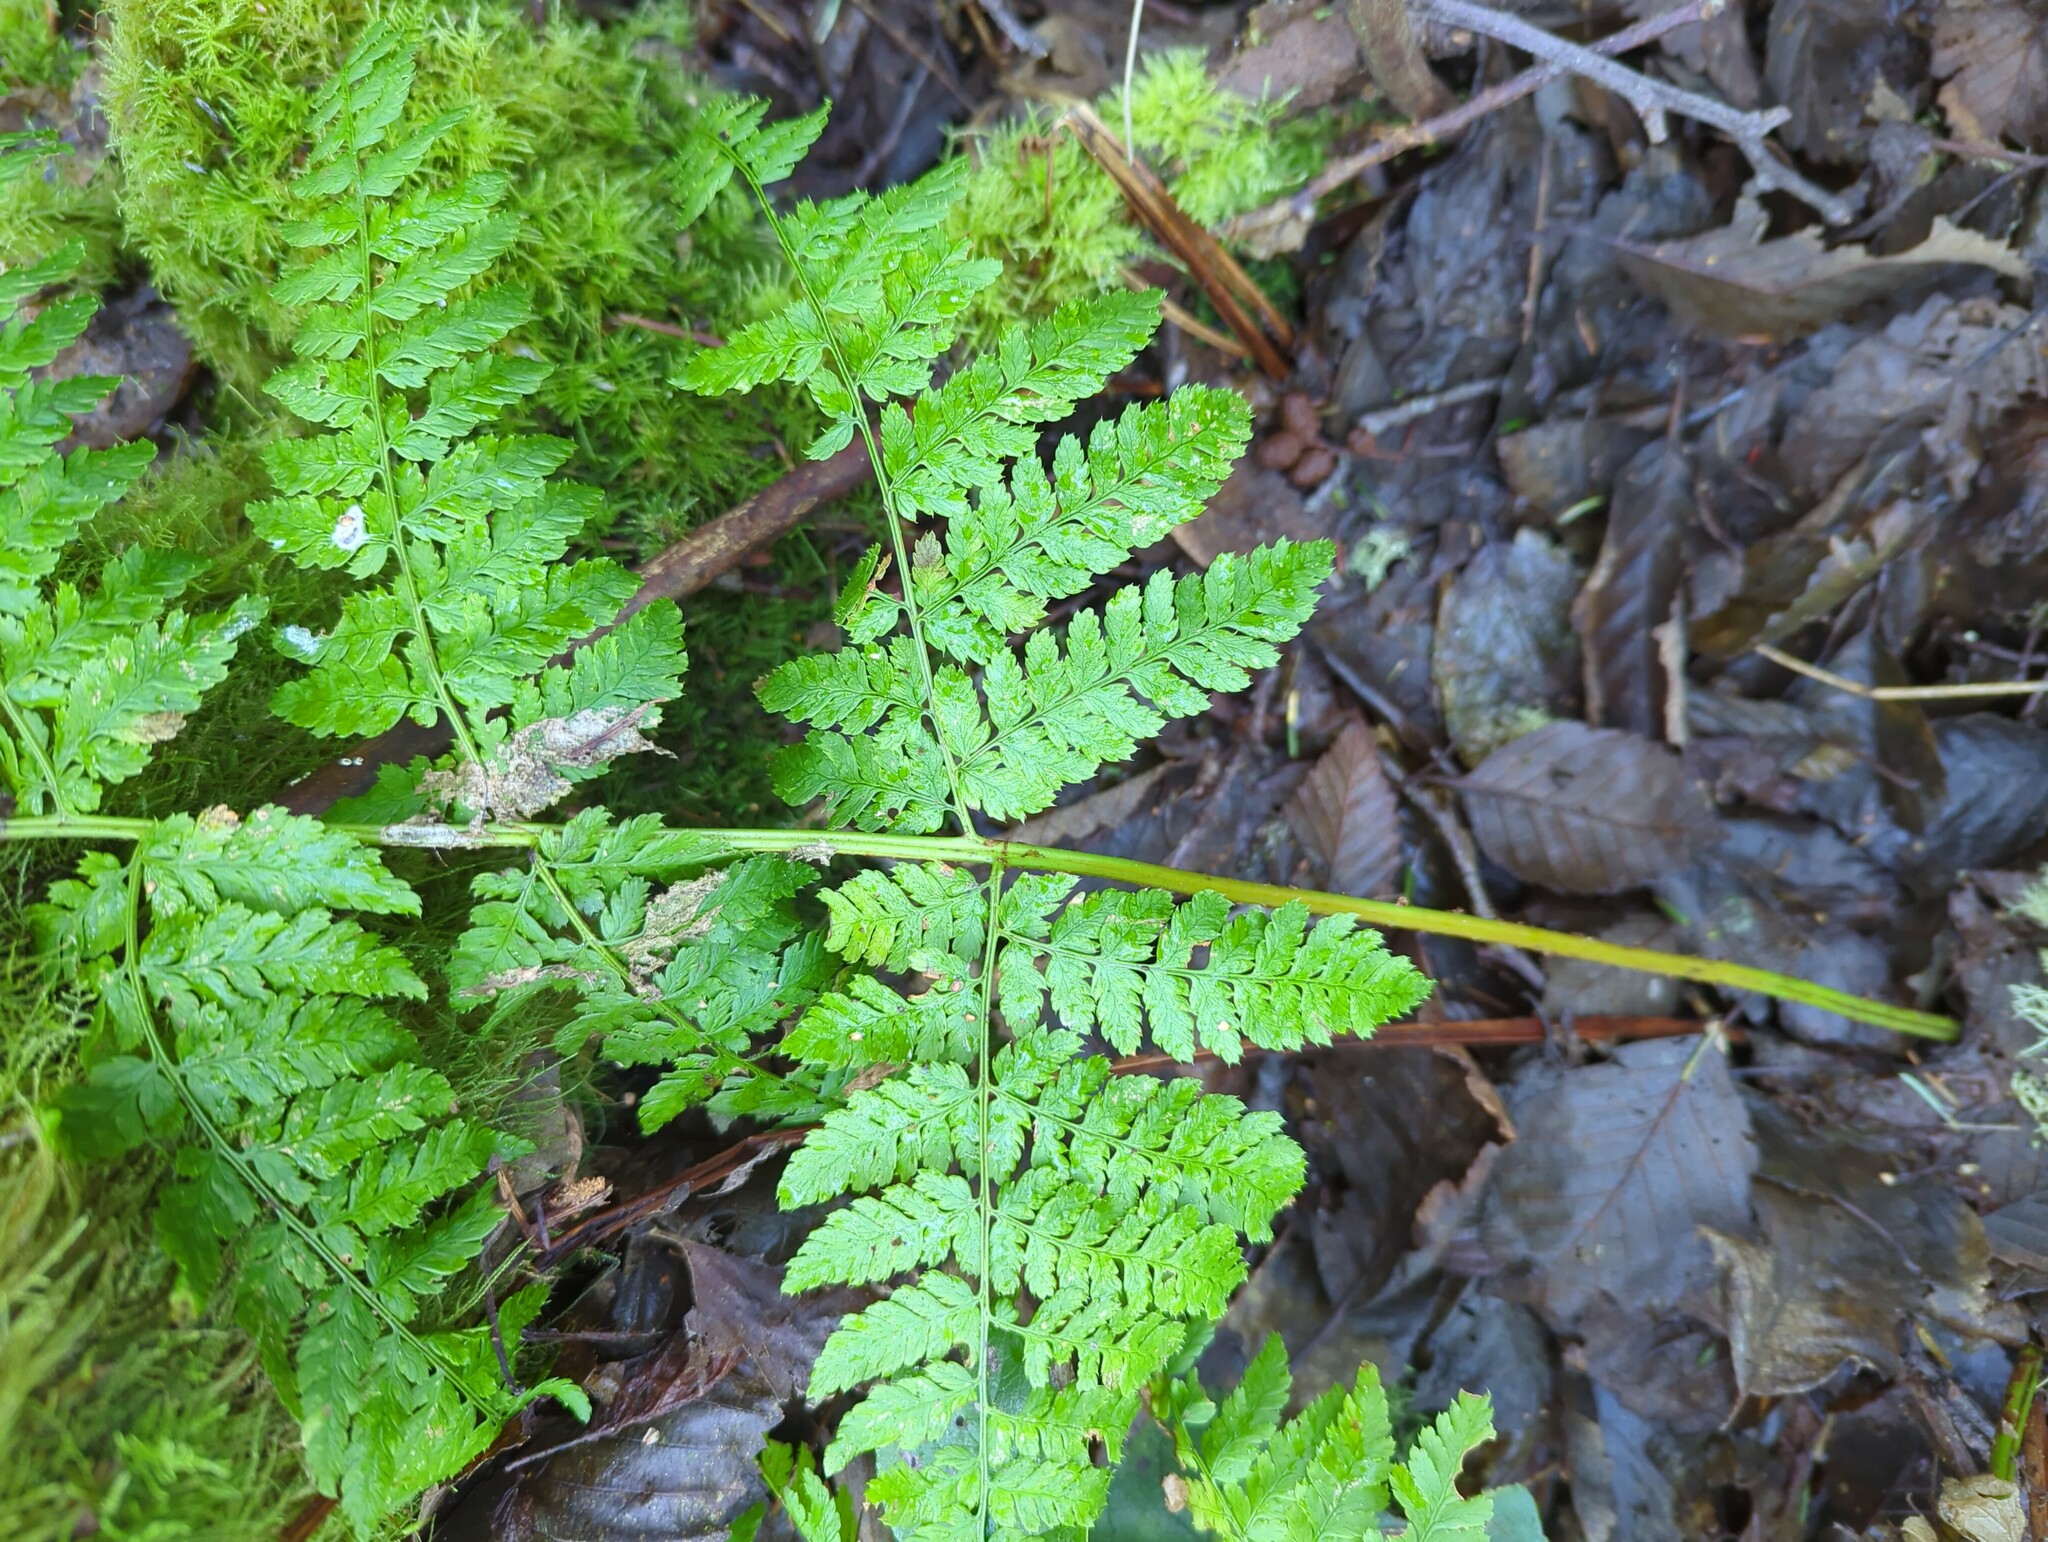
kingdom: Plantae
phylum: Tracheophyta
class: Polypodiopsida
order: Polypodiales
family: Dryopteridaceae
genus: Dryopteris
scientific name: Dryopteris expansa
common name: Northern buckler fern
